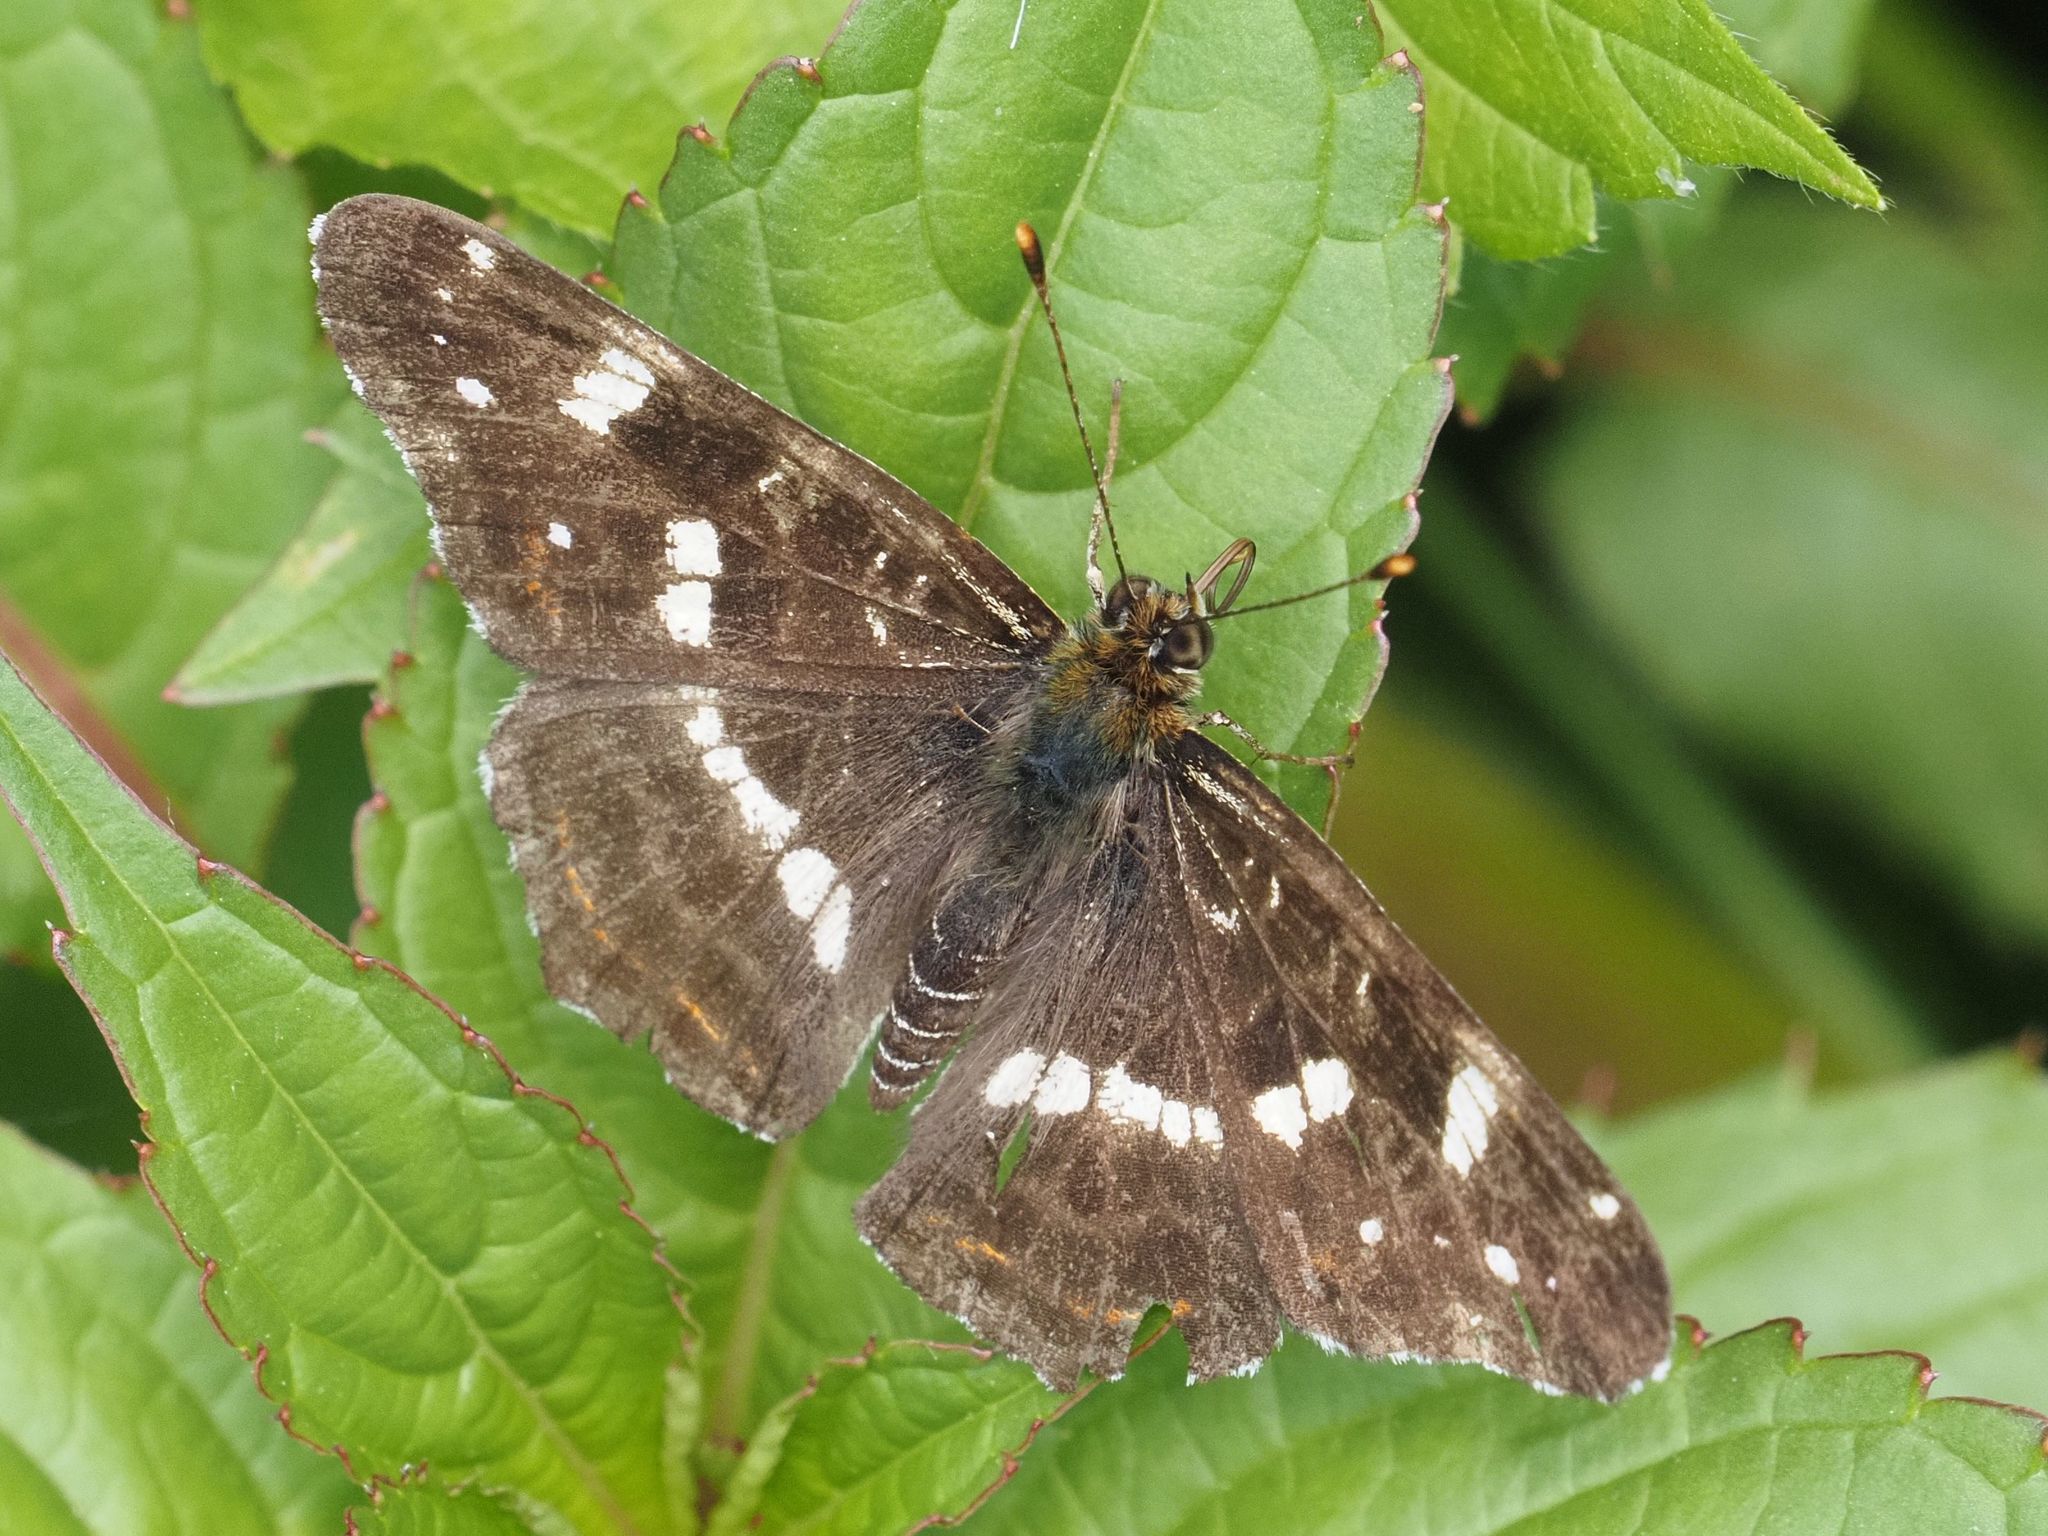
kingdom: Animalia
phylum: Arthropoda
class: Insecta
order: Lepidoptera
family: Nymphalidae
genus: Araschnia
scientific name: Araschnia levana
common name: Map butterfly
